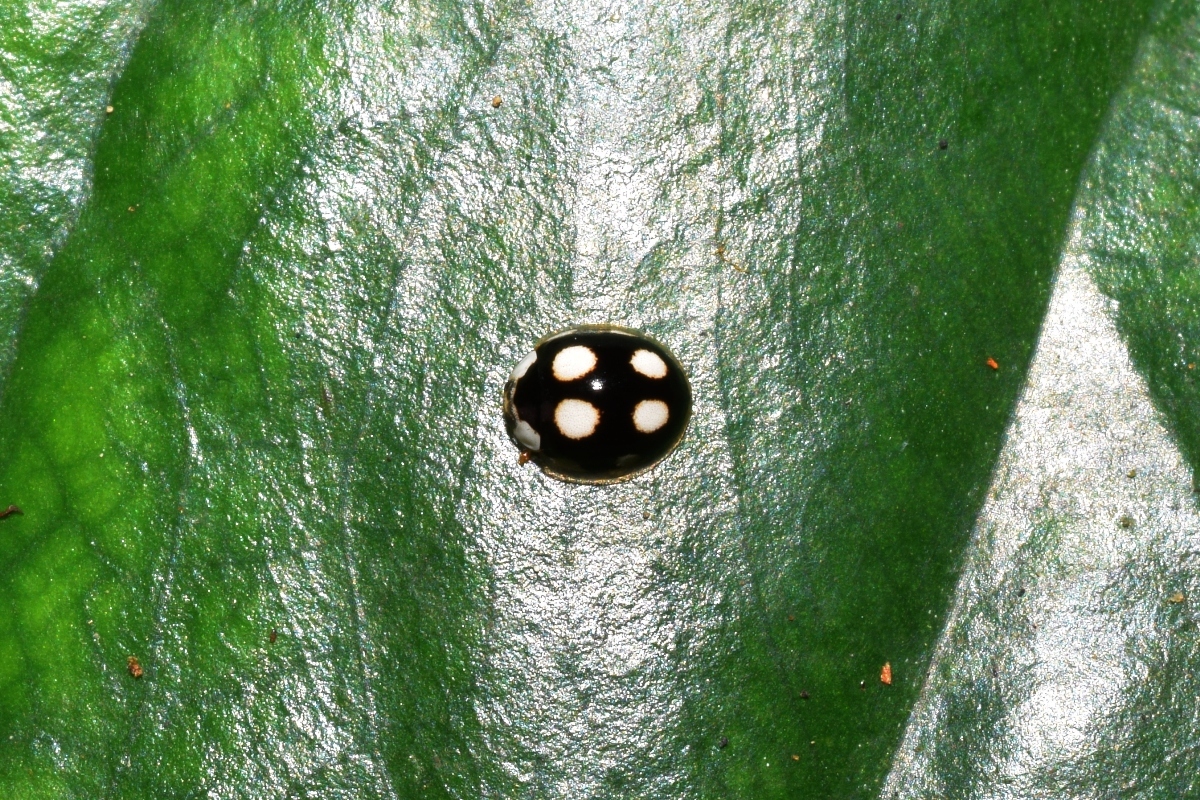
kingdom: Animalia
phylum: Arthropoda
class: Insecta
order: Coleoptera
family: Coccinellidae
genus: Oenopia
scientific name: Oenopia
